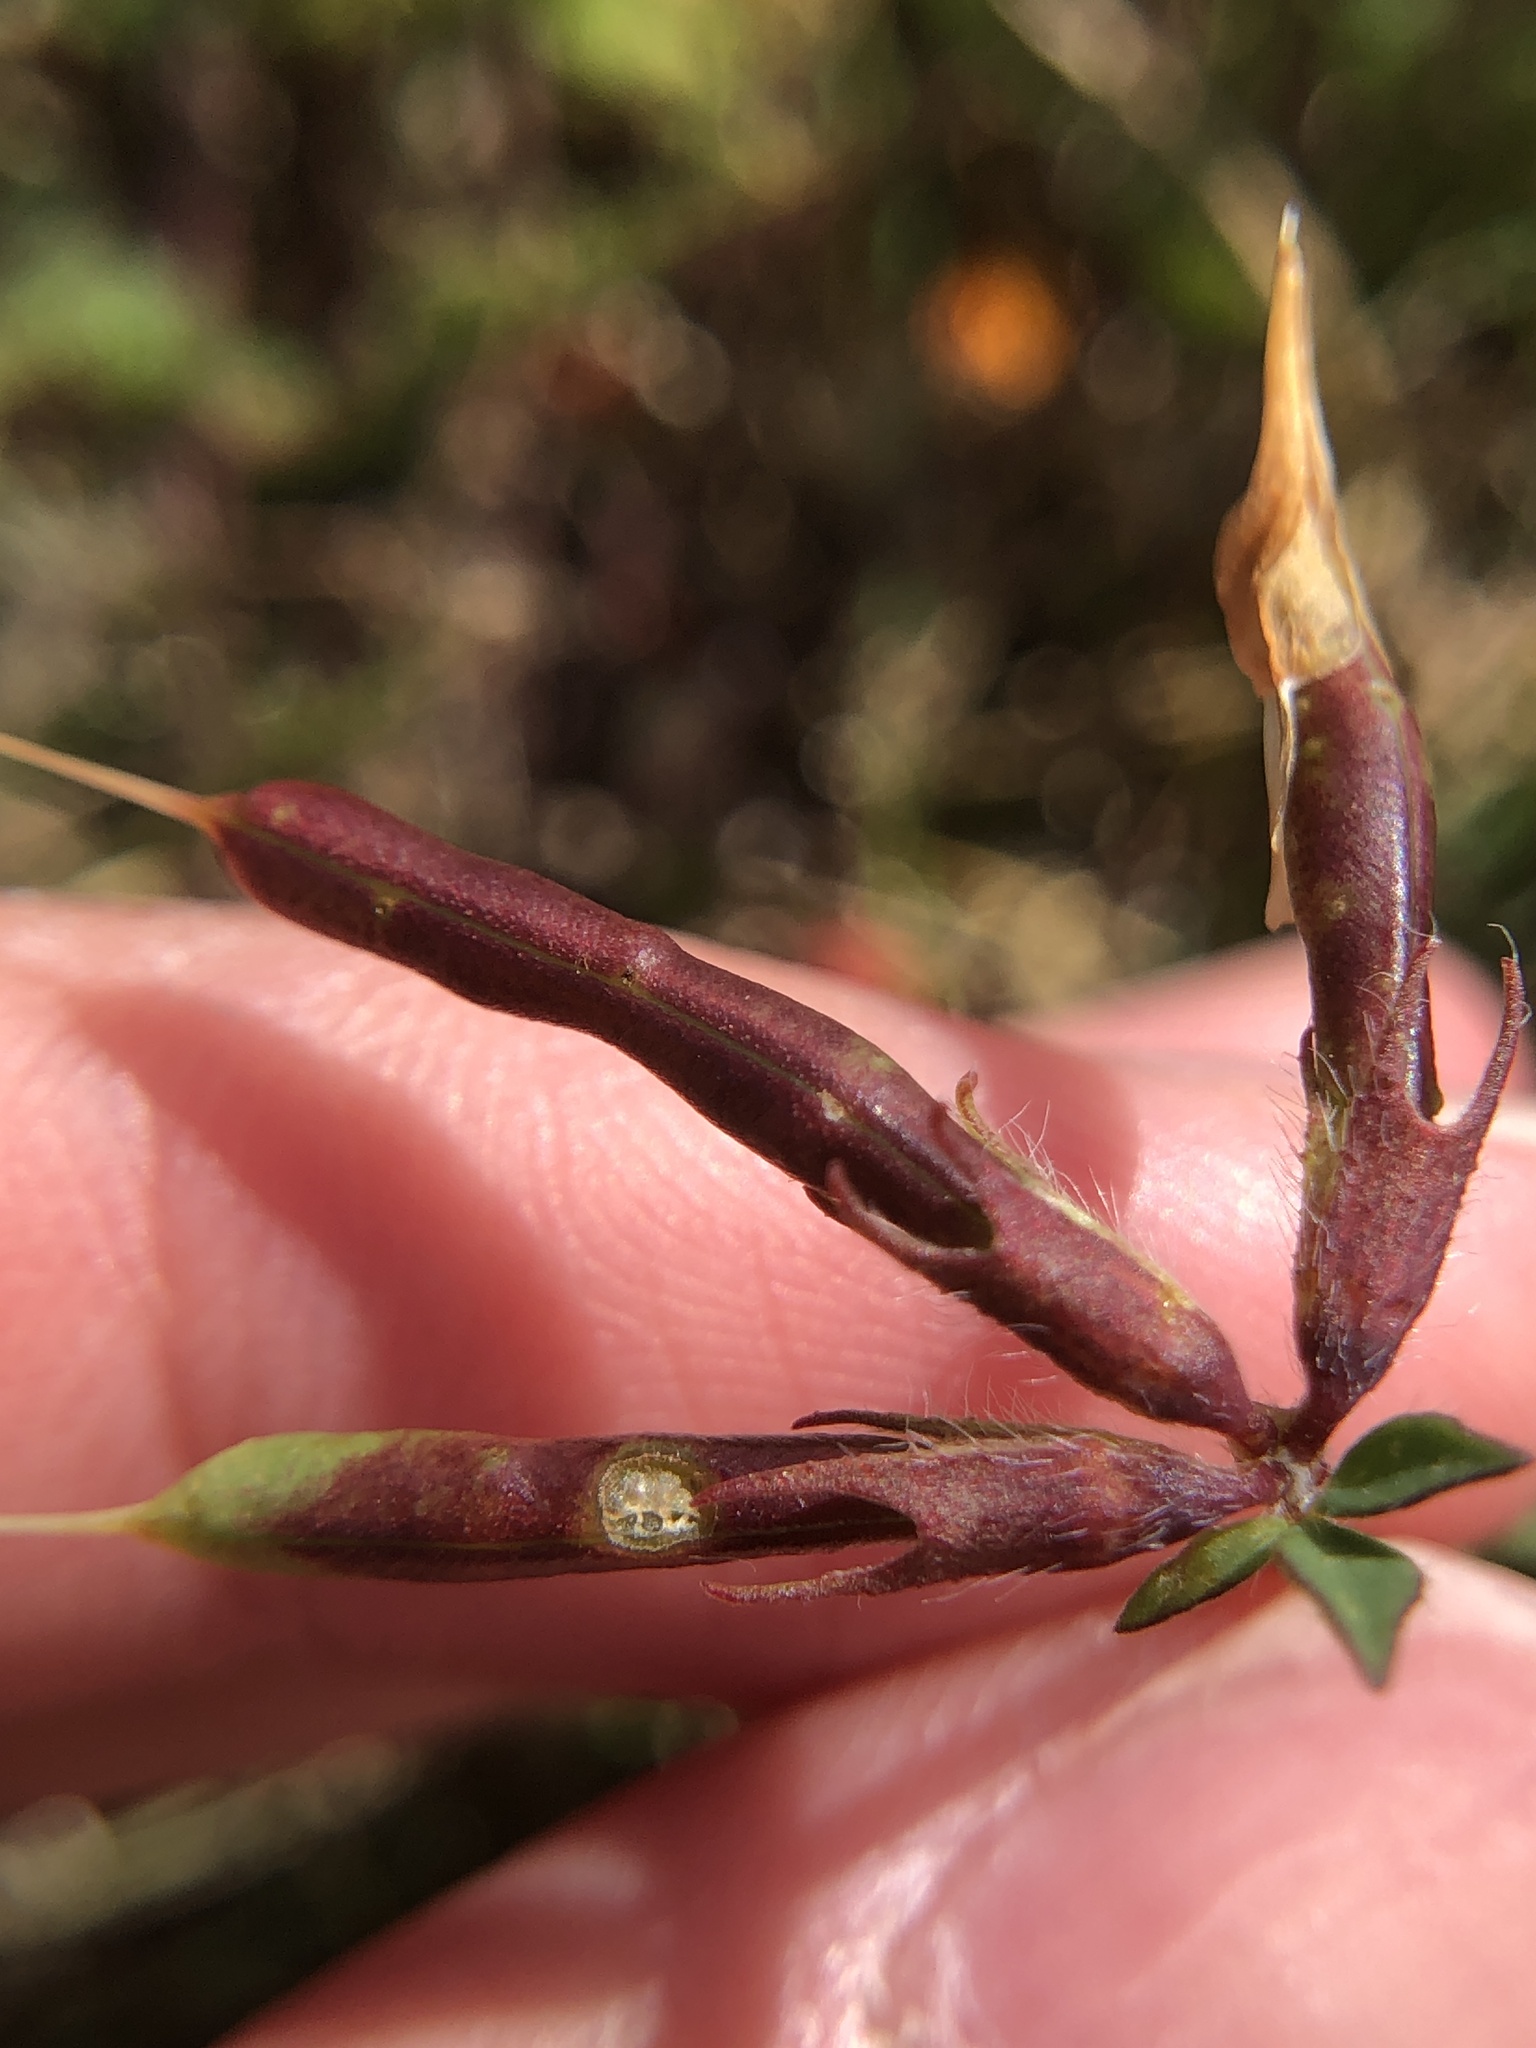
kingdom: Plantae
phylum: Tracheophyta
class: Magnoliopsida
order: Fabales
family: Fabaceae
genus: Lotus
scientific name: Lotus corniculatus
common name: Common bird's-foot-trefoil
